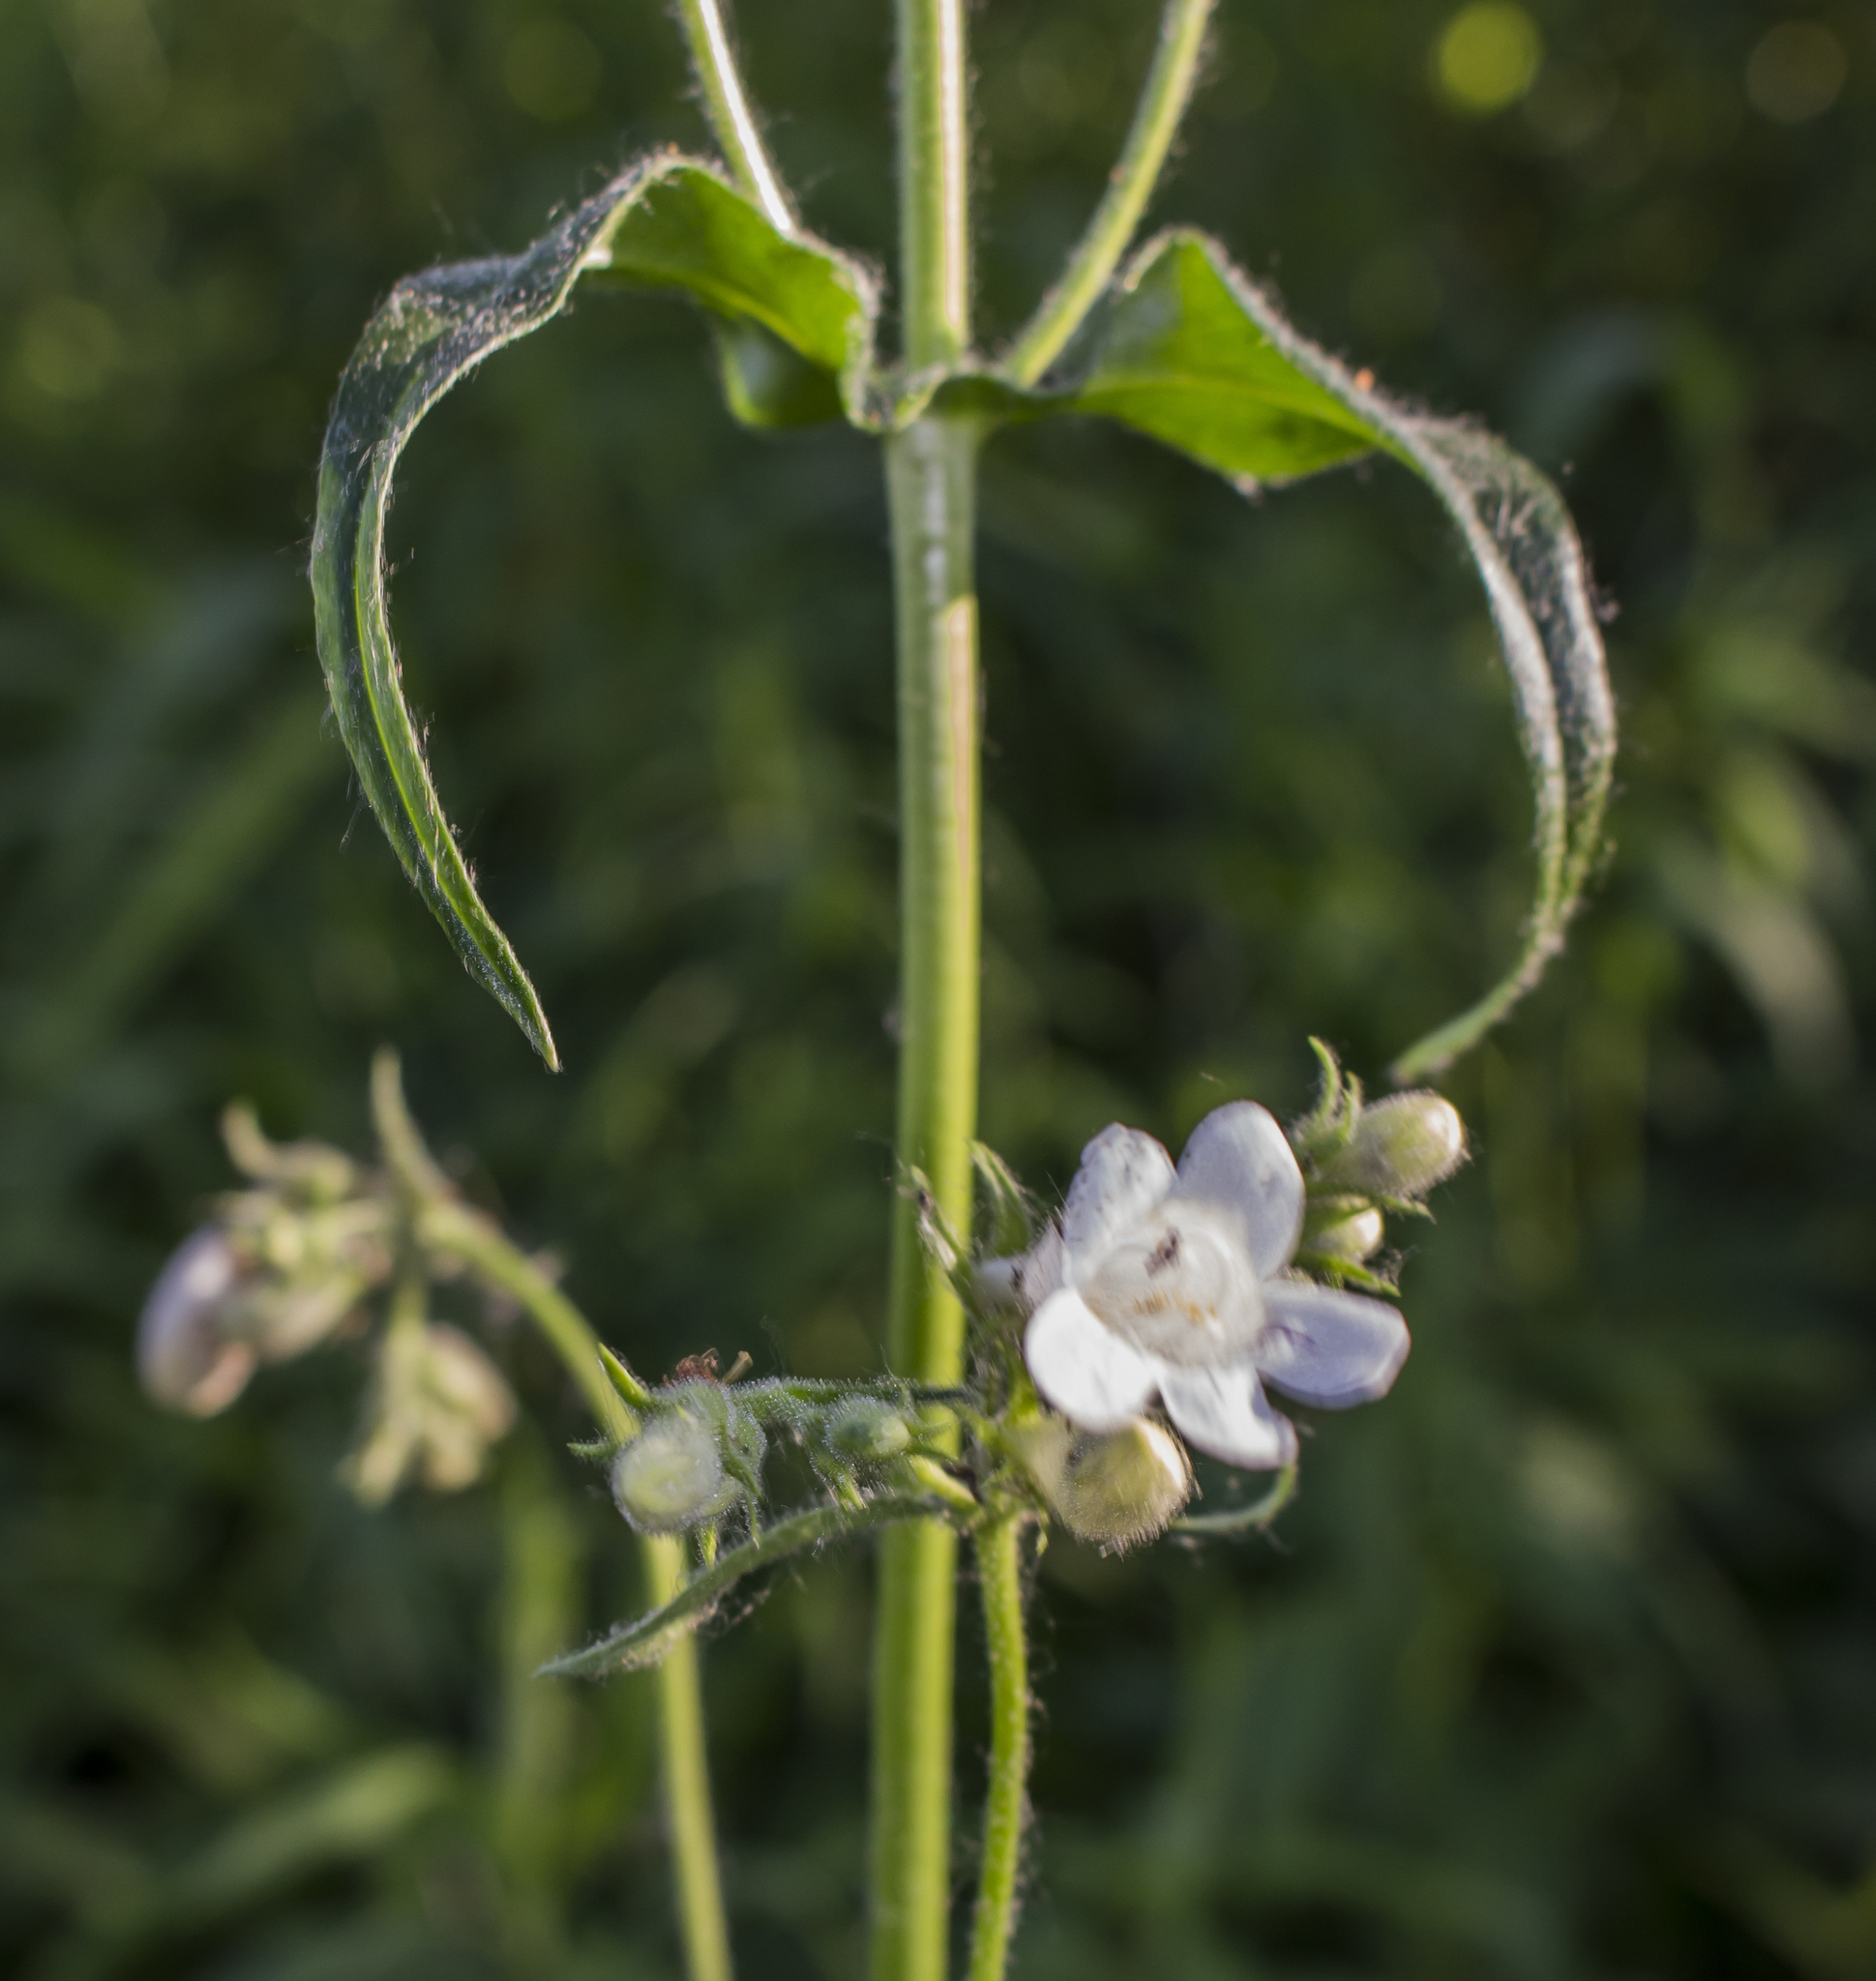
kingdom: Plantae
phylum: Tracheophyta
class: Magnoliopsida
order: Lamiales
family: Plantaginaceae
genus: Penstemon
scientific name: Penstemon digitalis
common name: Foxglove beardtongue
